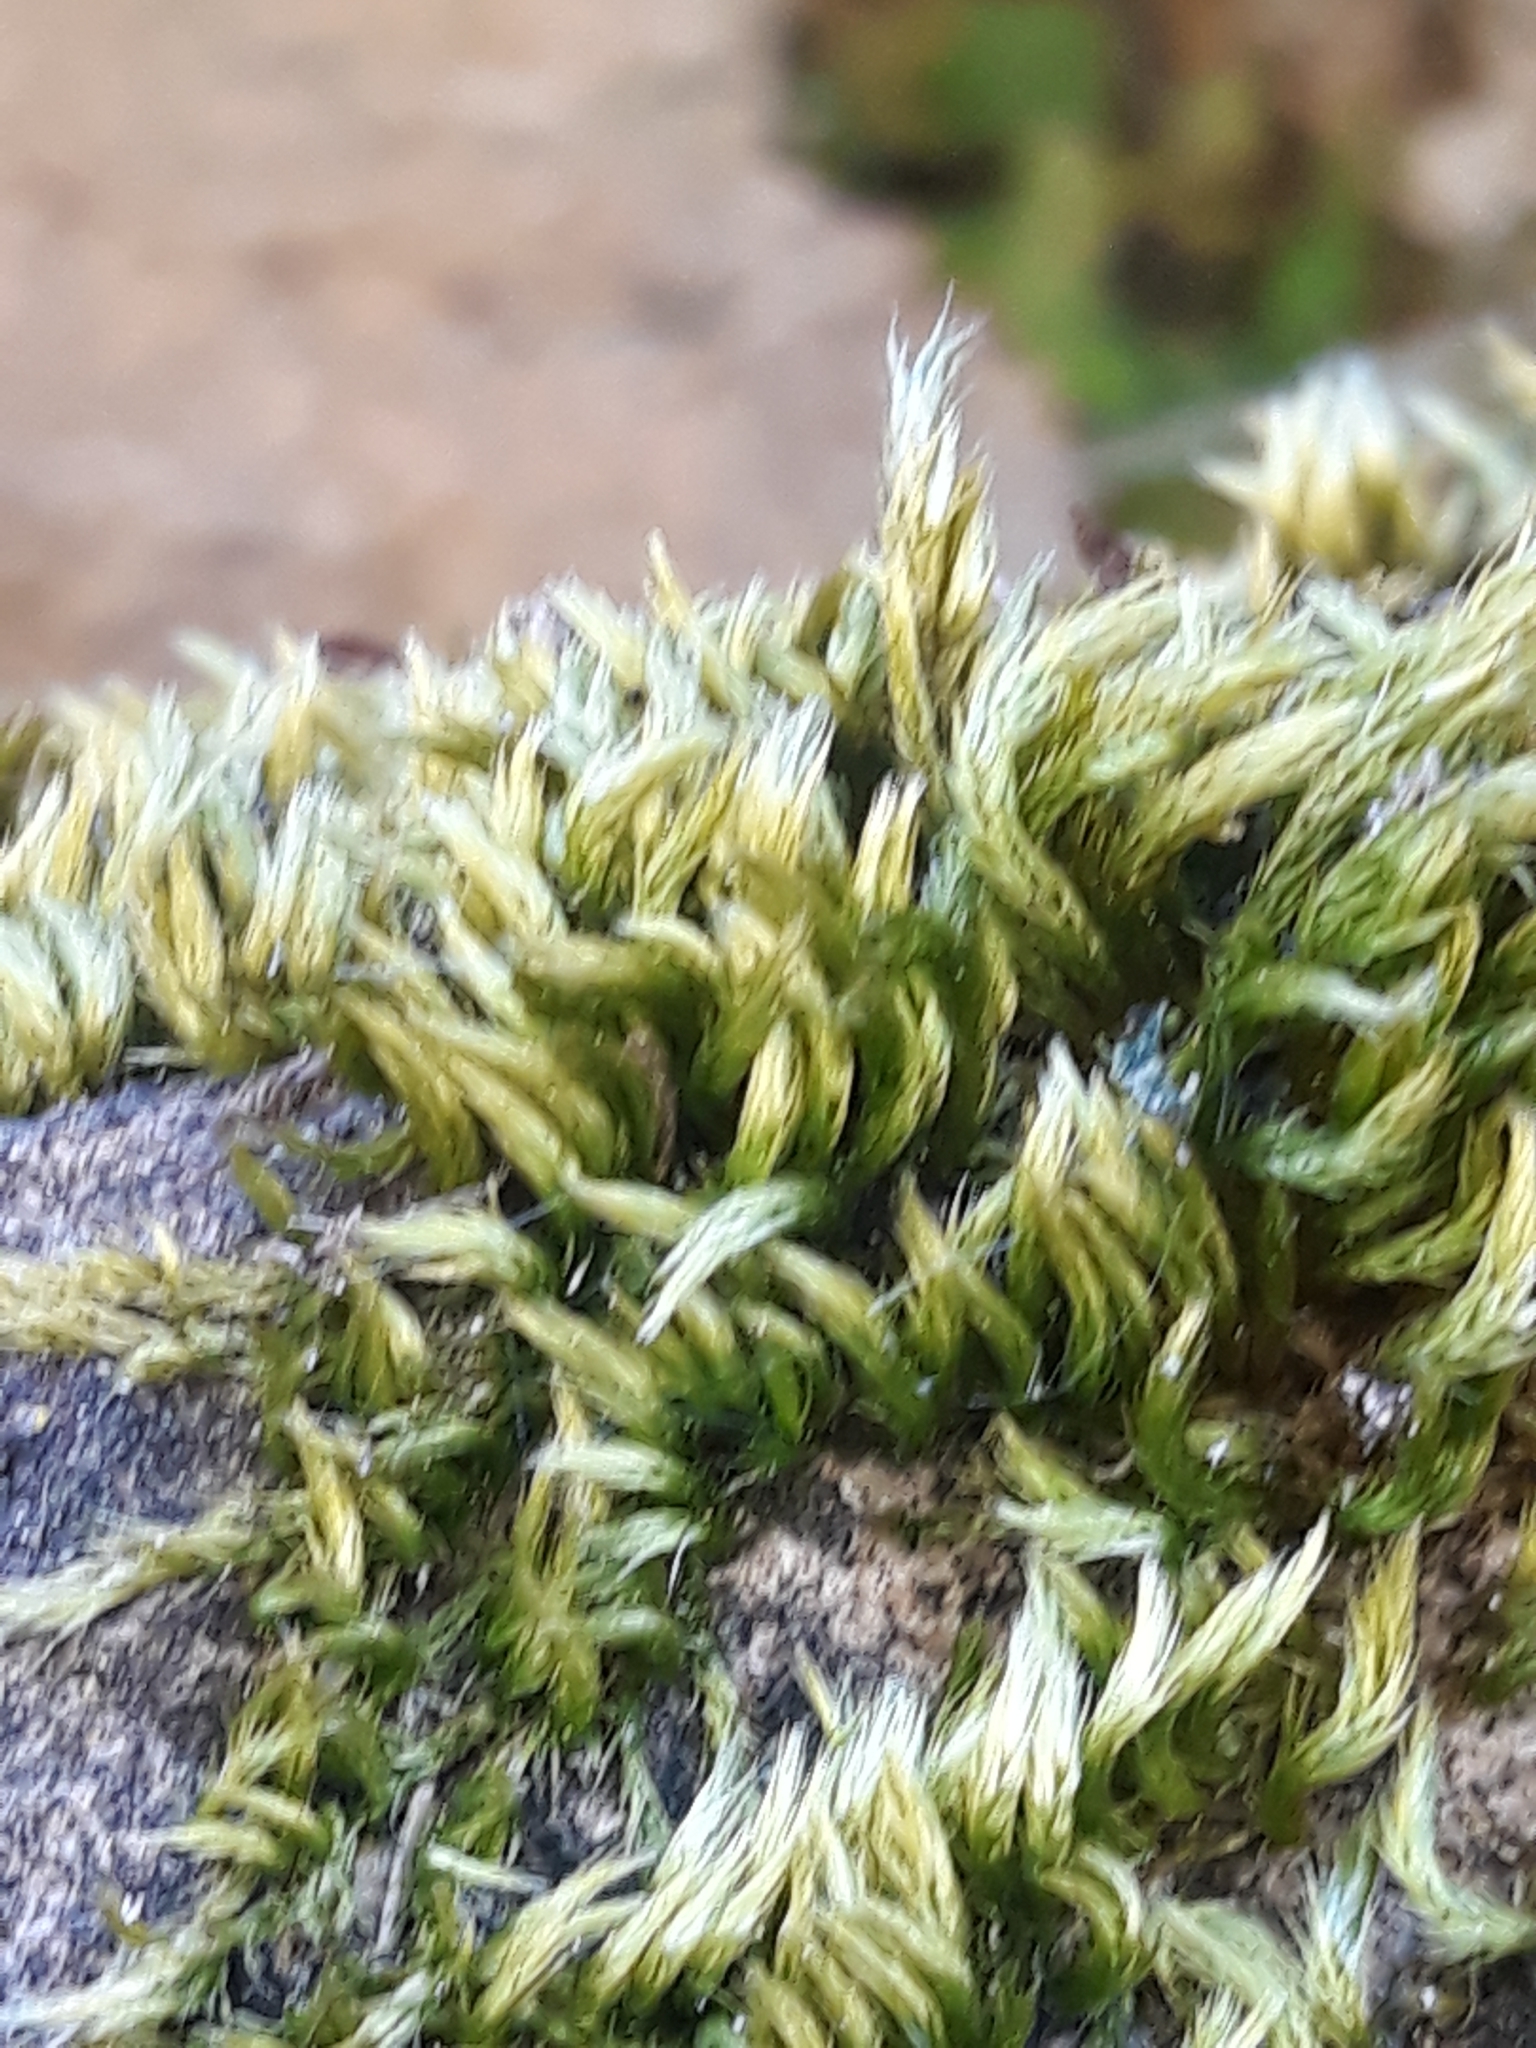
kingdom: Plantae
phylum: Bryophyta
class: Bryopsida
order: Hypnales
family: Brachytheciaceae
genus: Homalothecium
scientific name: Homalothecium sericeum
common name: Silky wall feather-moss
